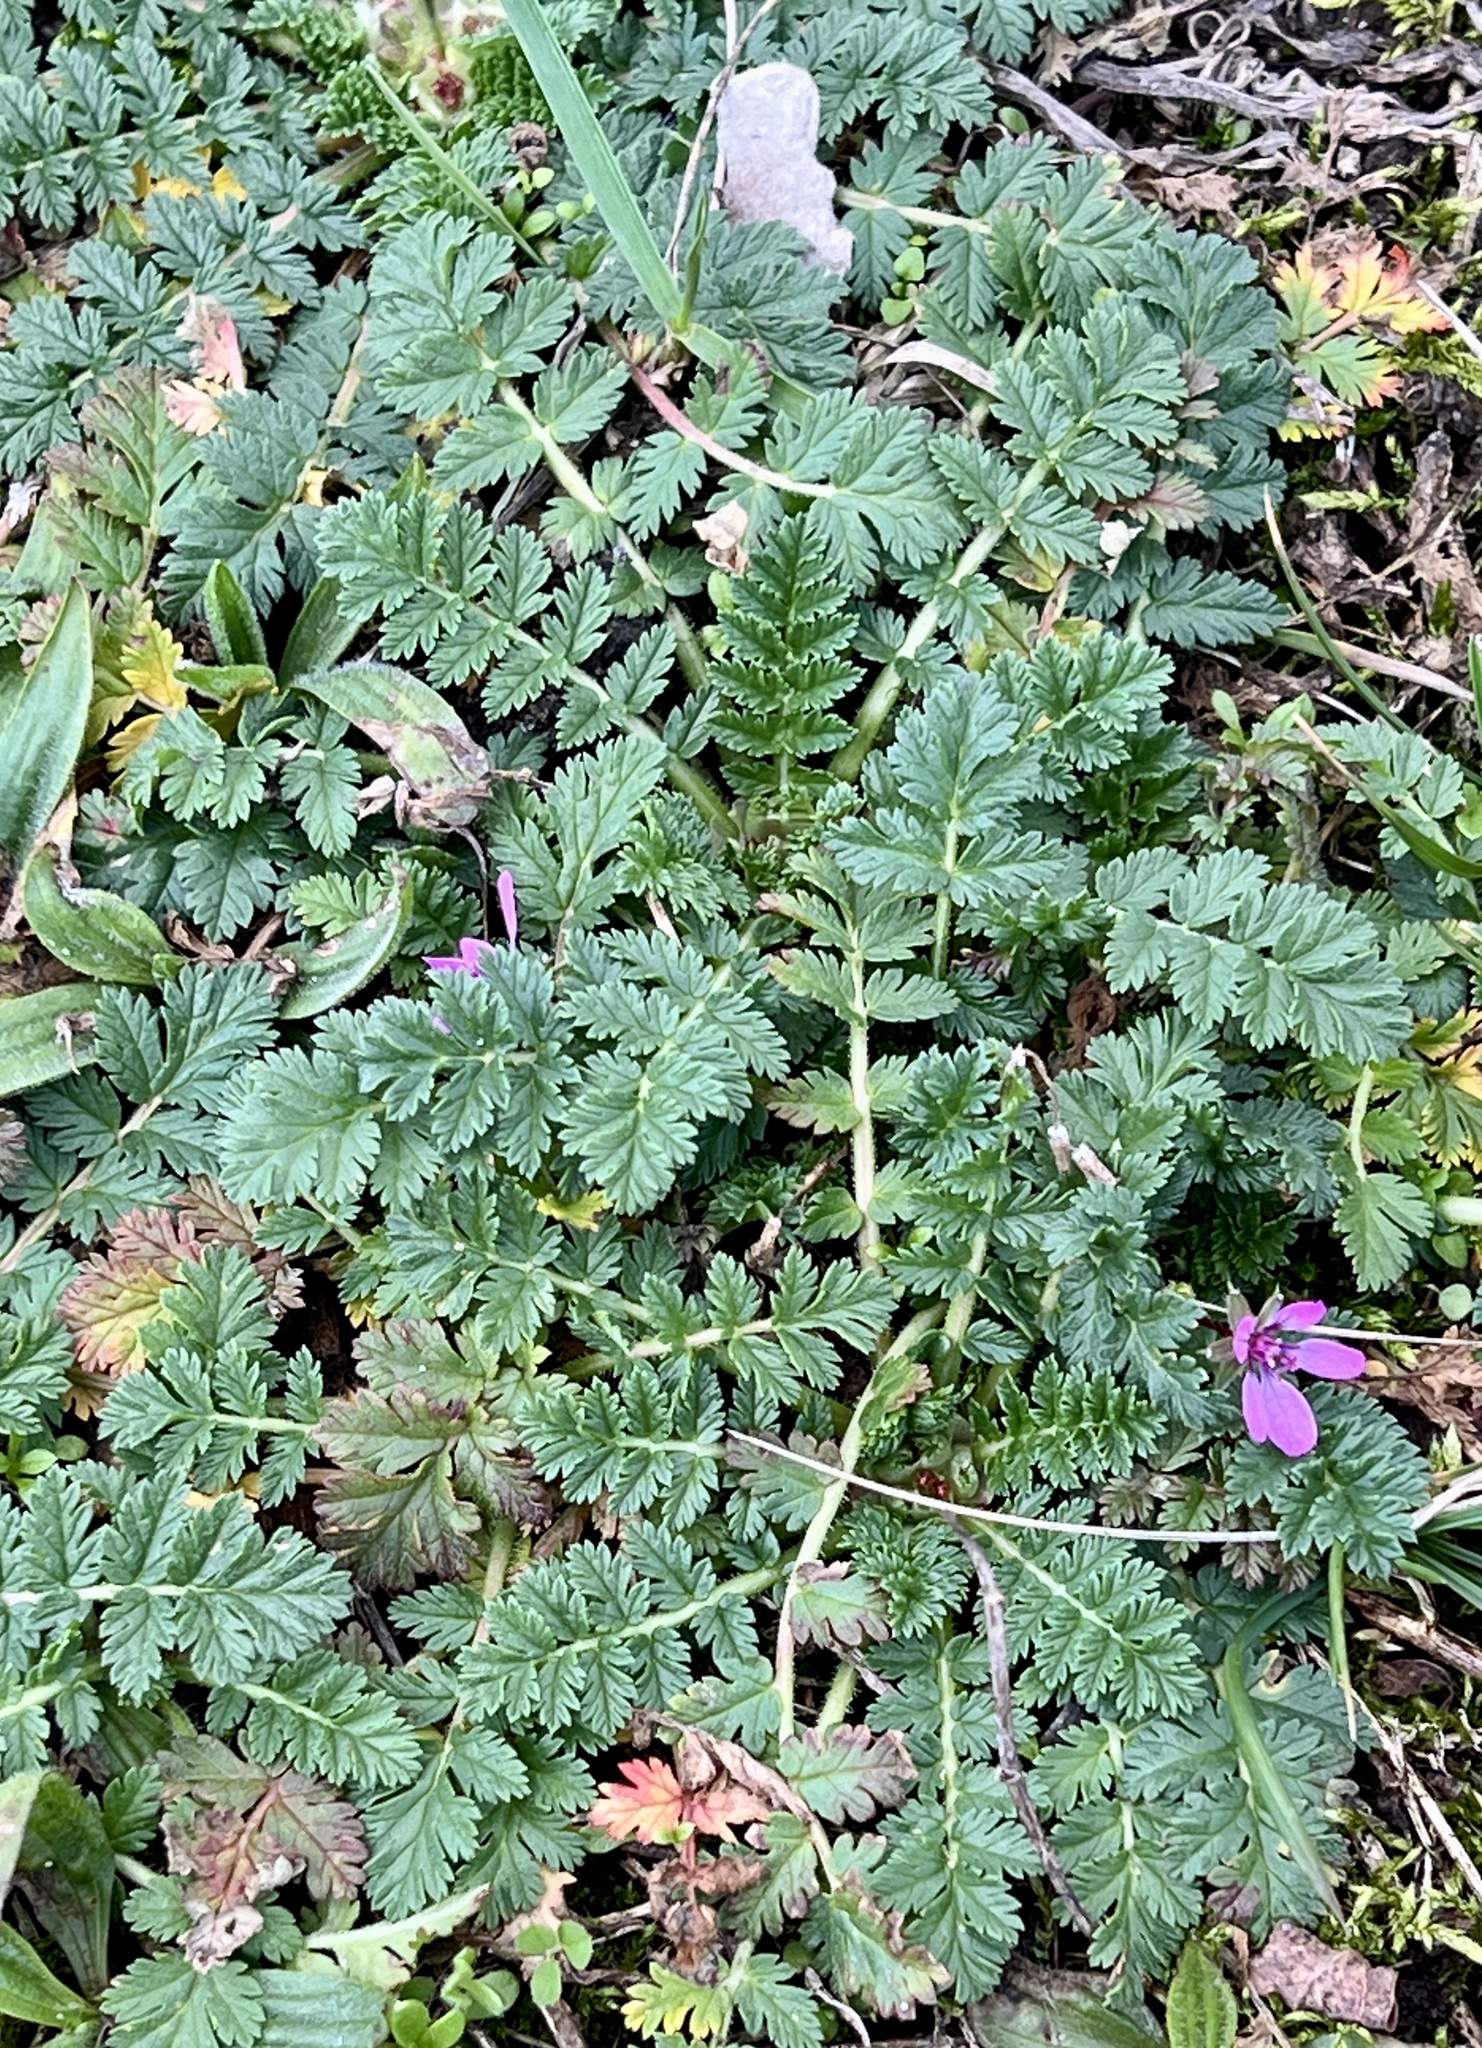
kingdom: Plantae
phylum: Tracheophyta
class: Magnoliopsida
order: Geraniales
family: Geraniaceae
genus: Erodium
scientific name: Erodium cicutarium
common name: Common stork's-bill
